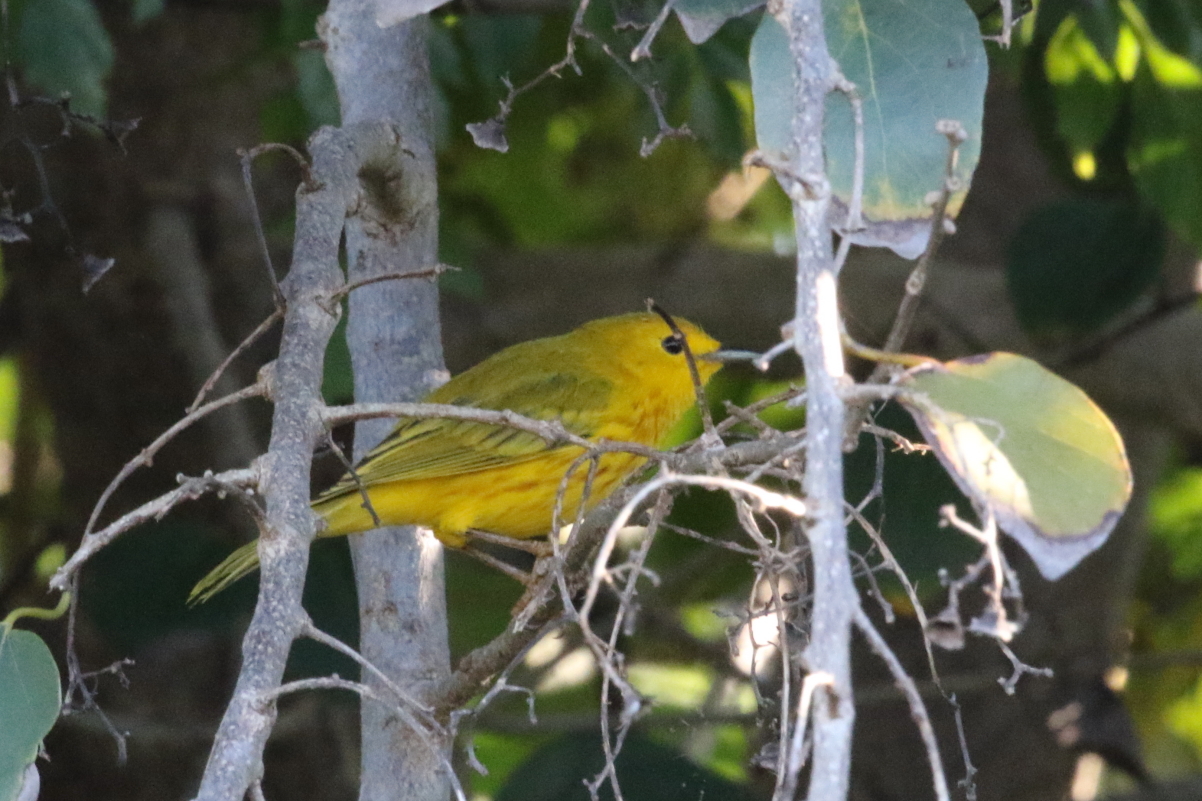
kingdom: Animalia
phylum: Chordata
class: Aves
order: Passeriformes
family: Parulidae
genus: Setophaga
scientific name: Setophaga petechia
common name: Yellow warbler
